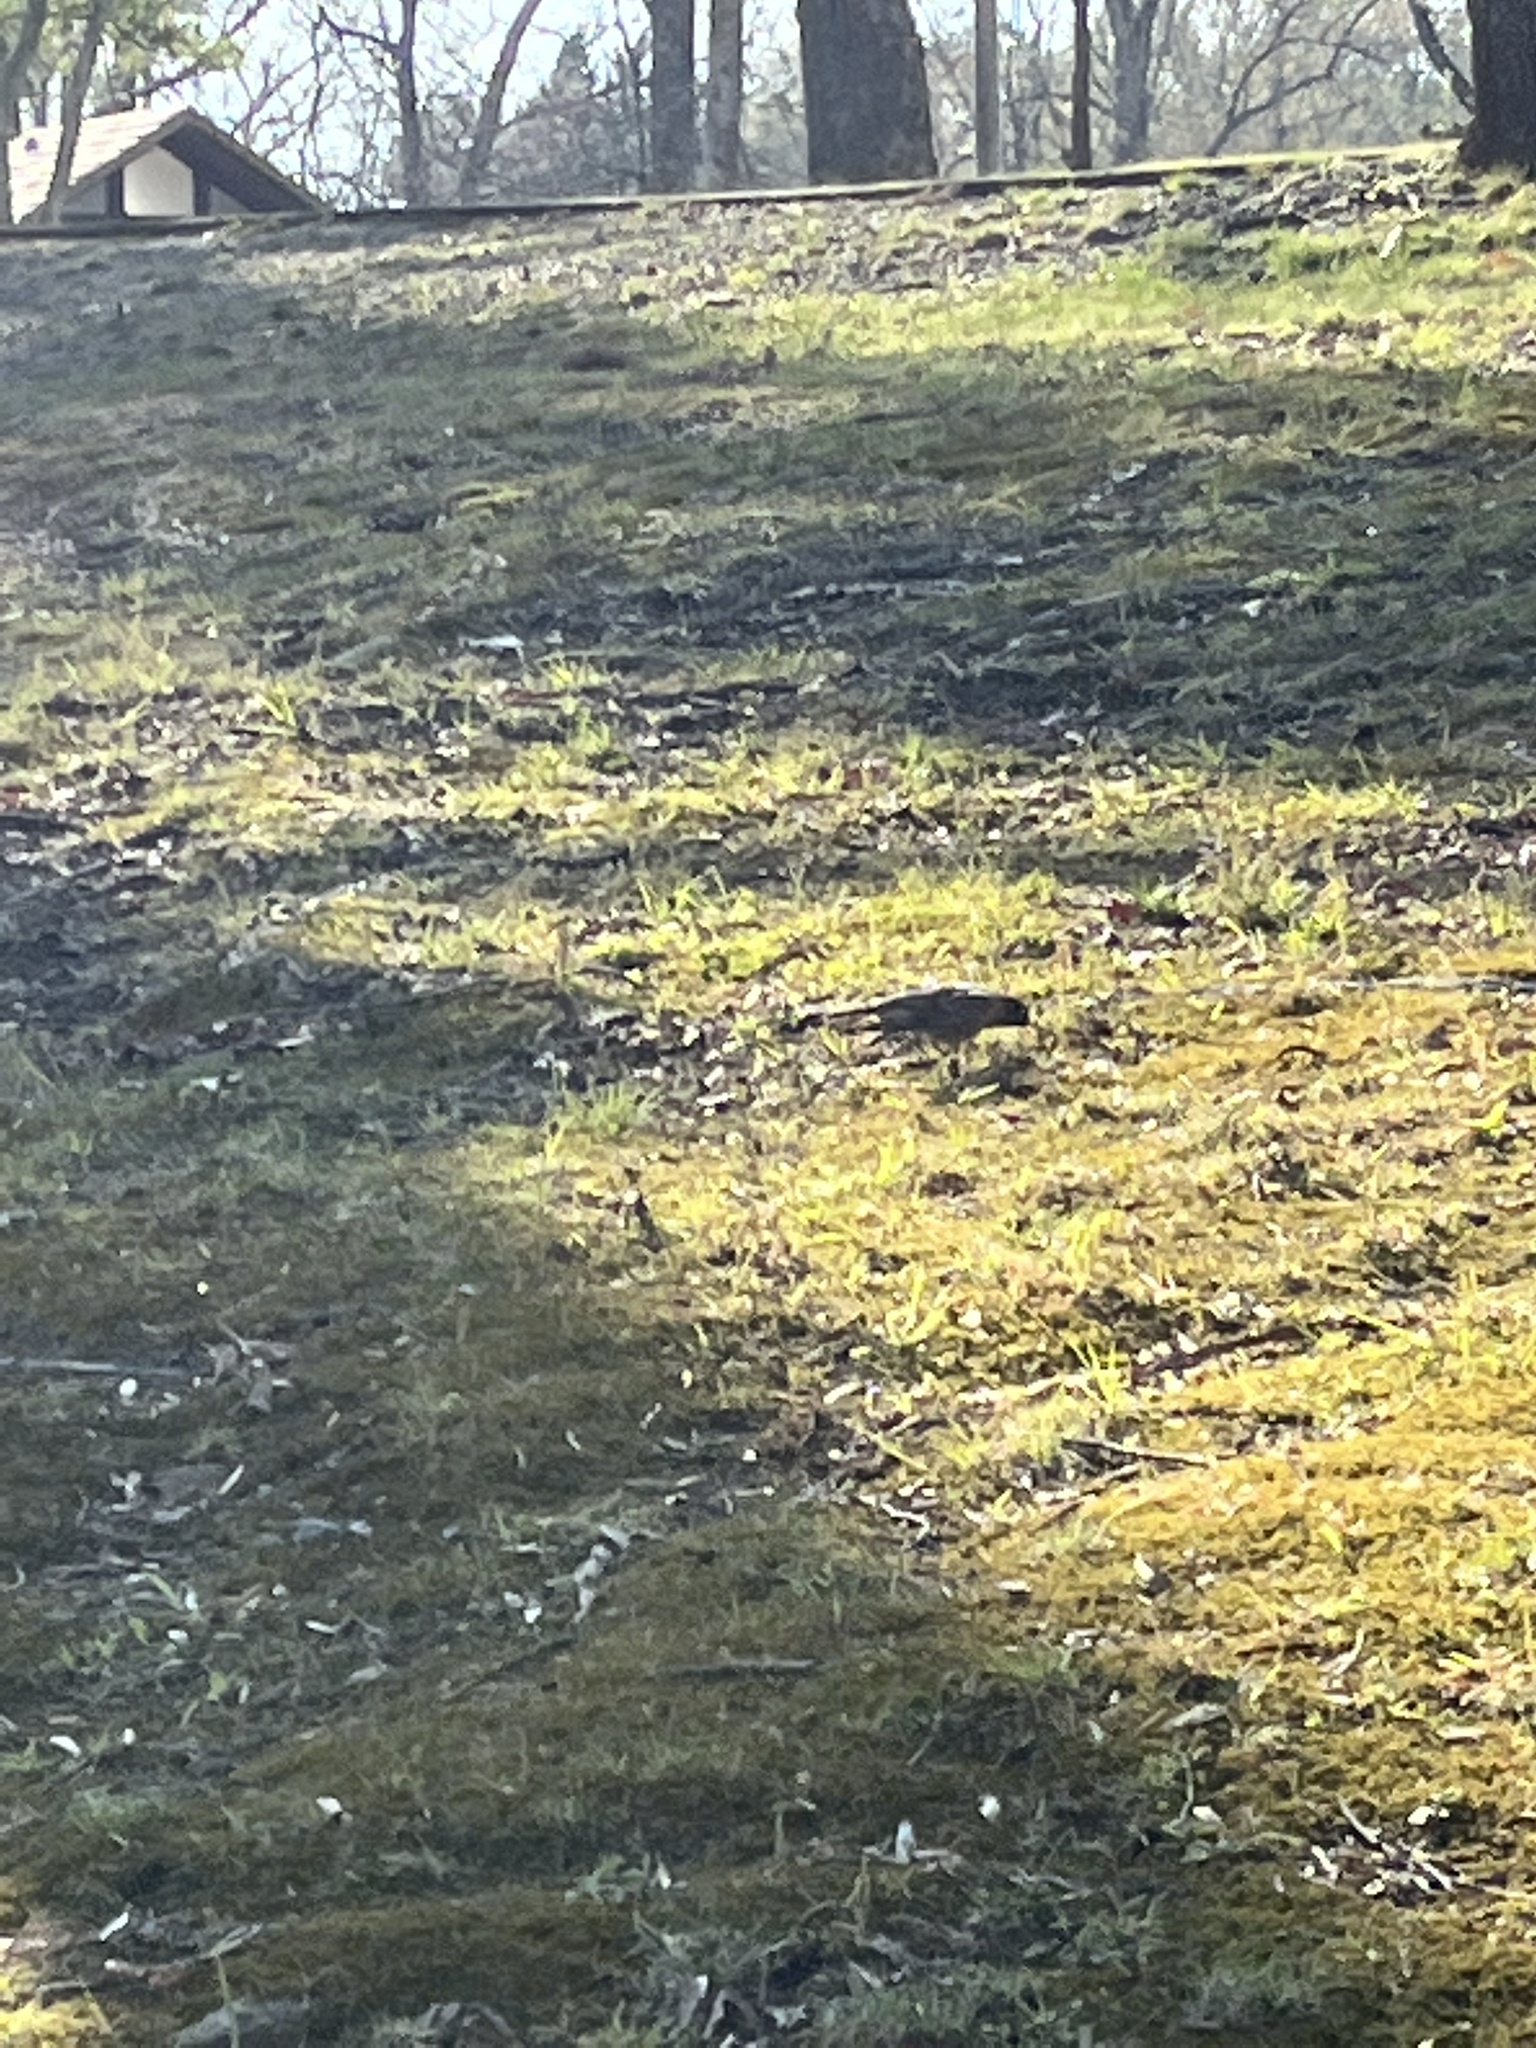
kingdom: Animalia
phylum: Chordata
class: Aves
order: Passeriformes
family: Turdidae
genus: Turdus
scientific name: Turdus migratorius
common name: American robin
